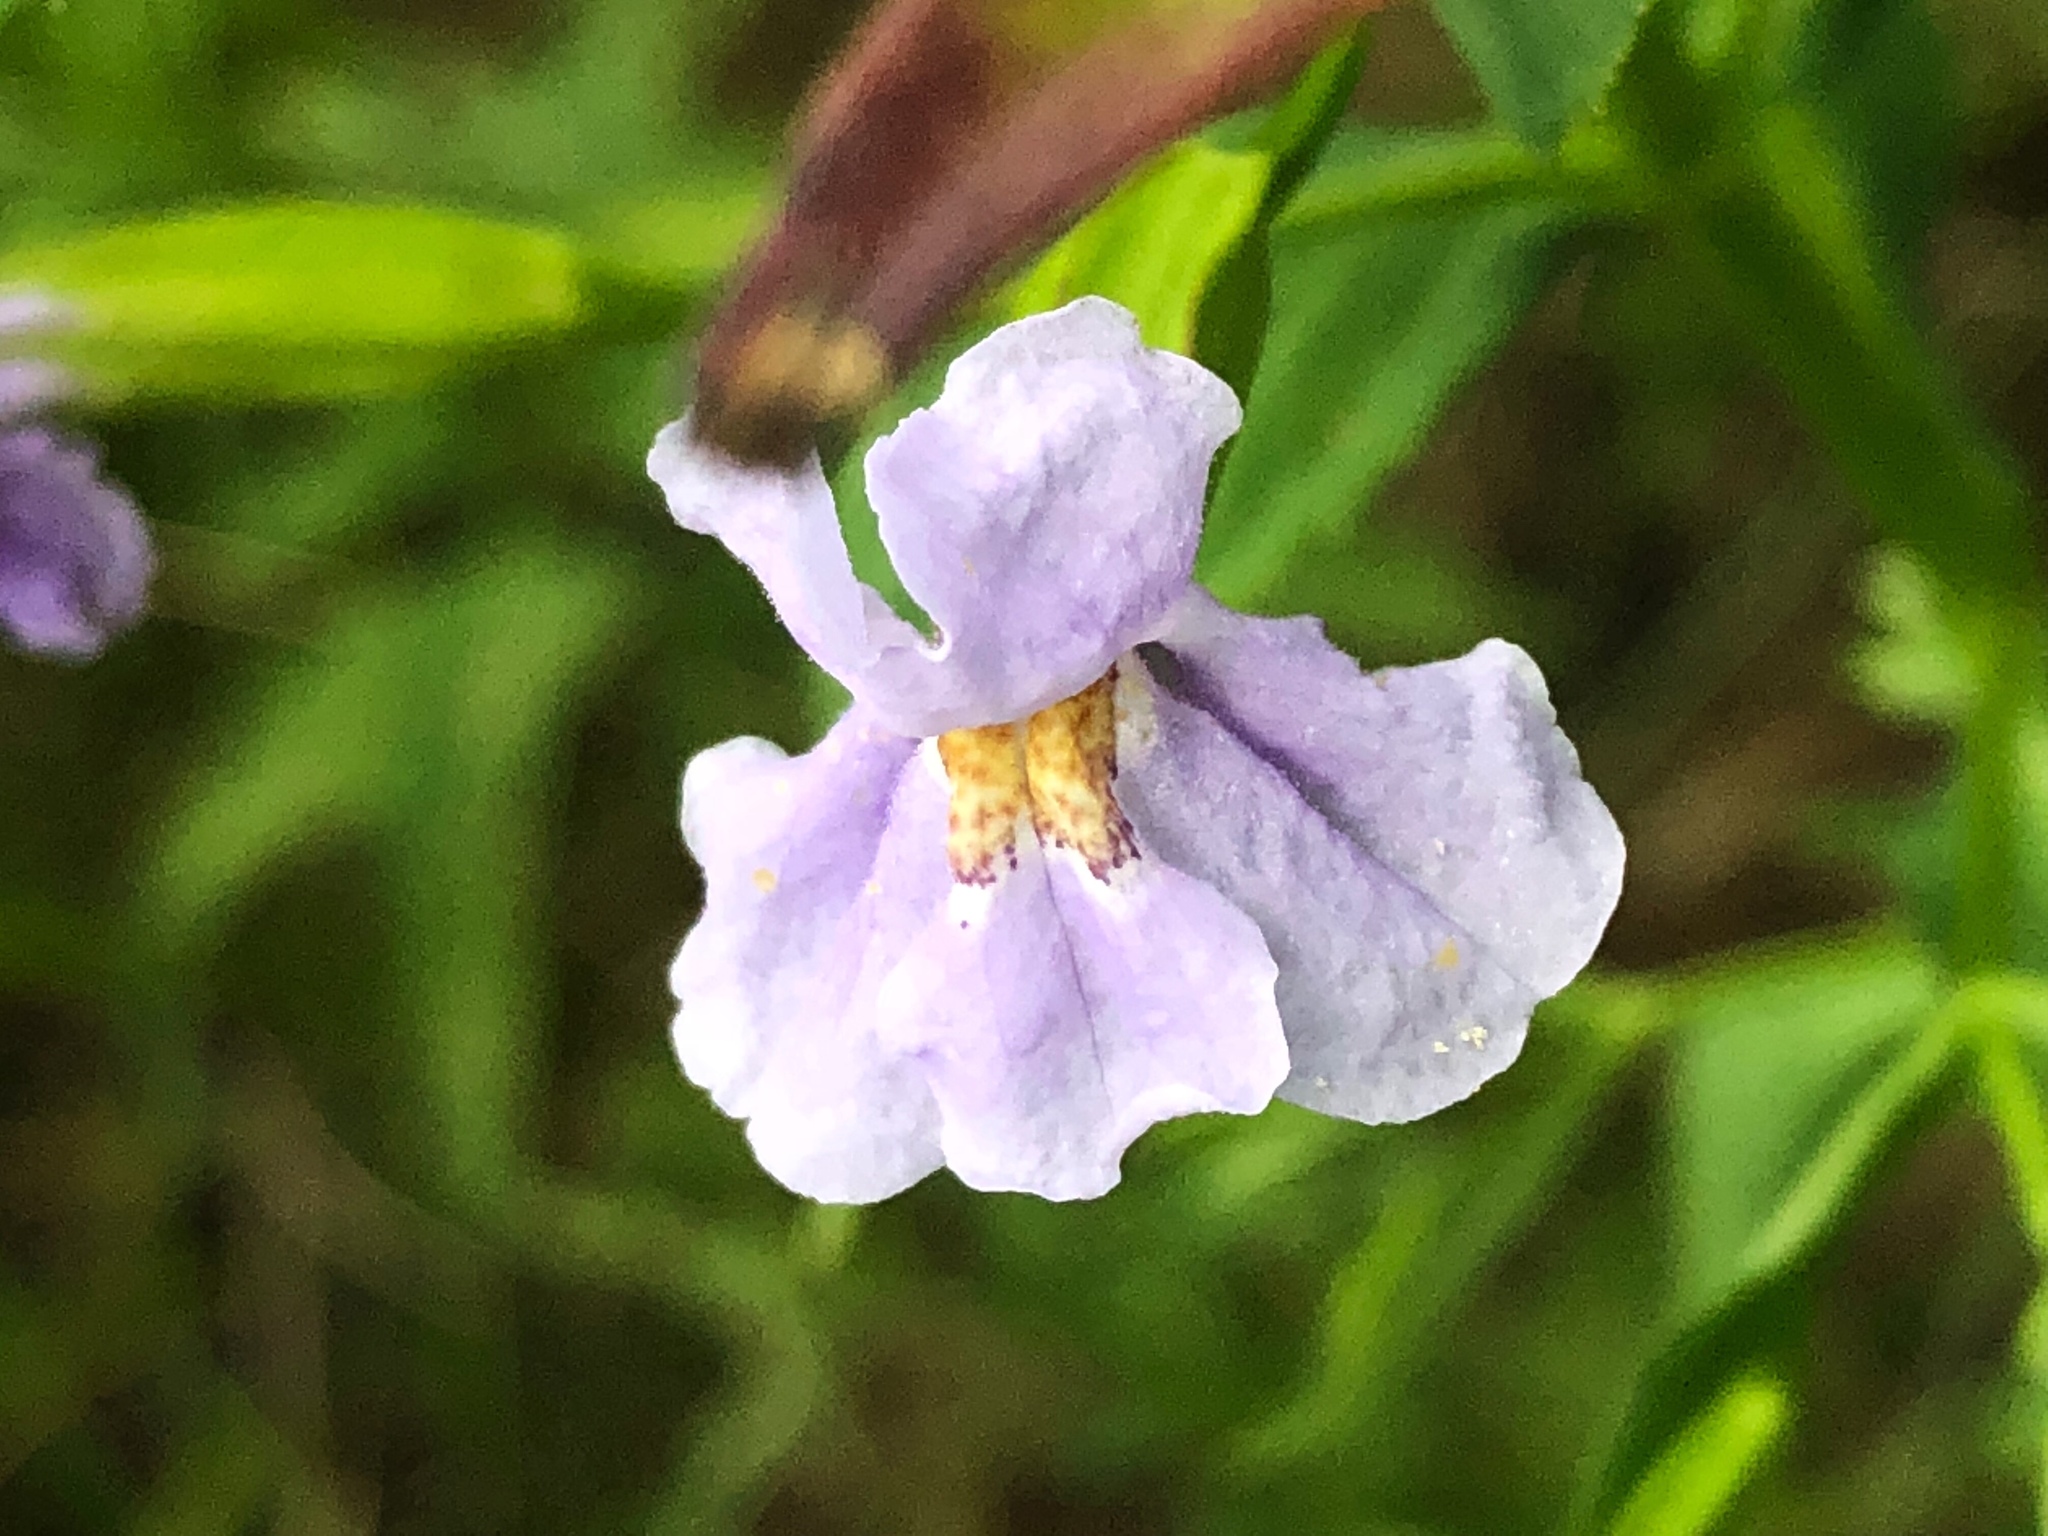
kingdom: Plantae
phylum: Tracheophyta
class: Magnoliopsida
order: Lamiales
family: Phrymaceae
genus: Mimulus
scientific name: Mimulus ringens
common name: Allegheny monkeyflower
